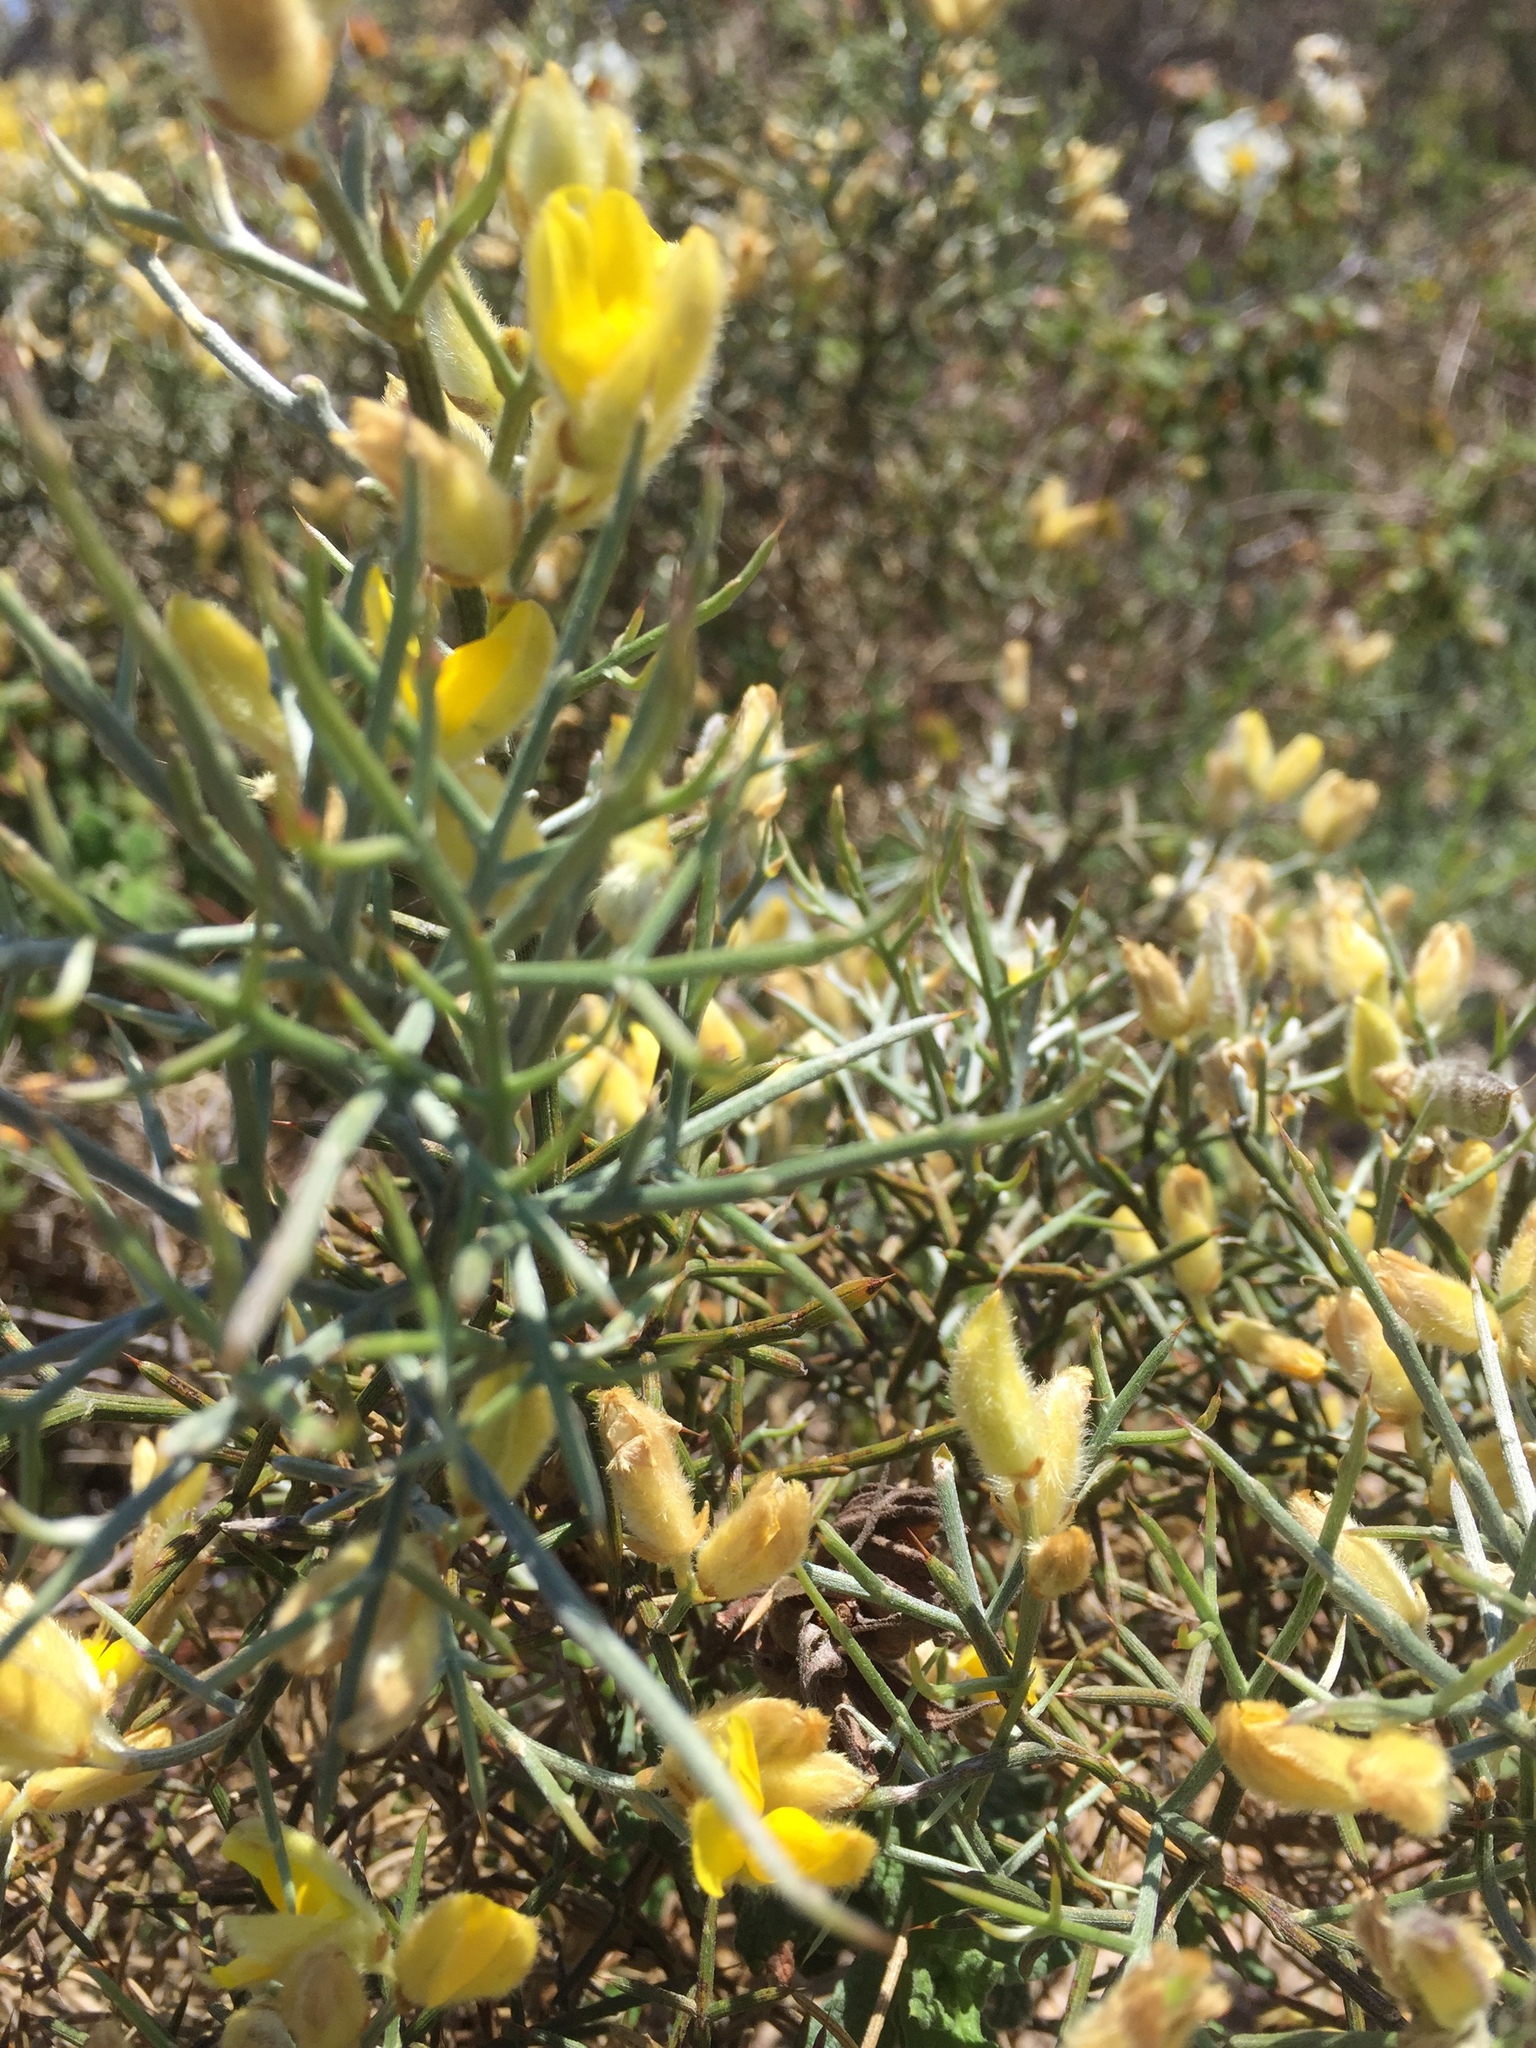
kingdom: Plantae
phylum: Tracheophyta
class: Magnoliopsida
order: Fabales
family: Fabaceae
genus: Spartium
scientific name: Spartium junceum
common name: Spanish broom
